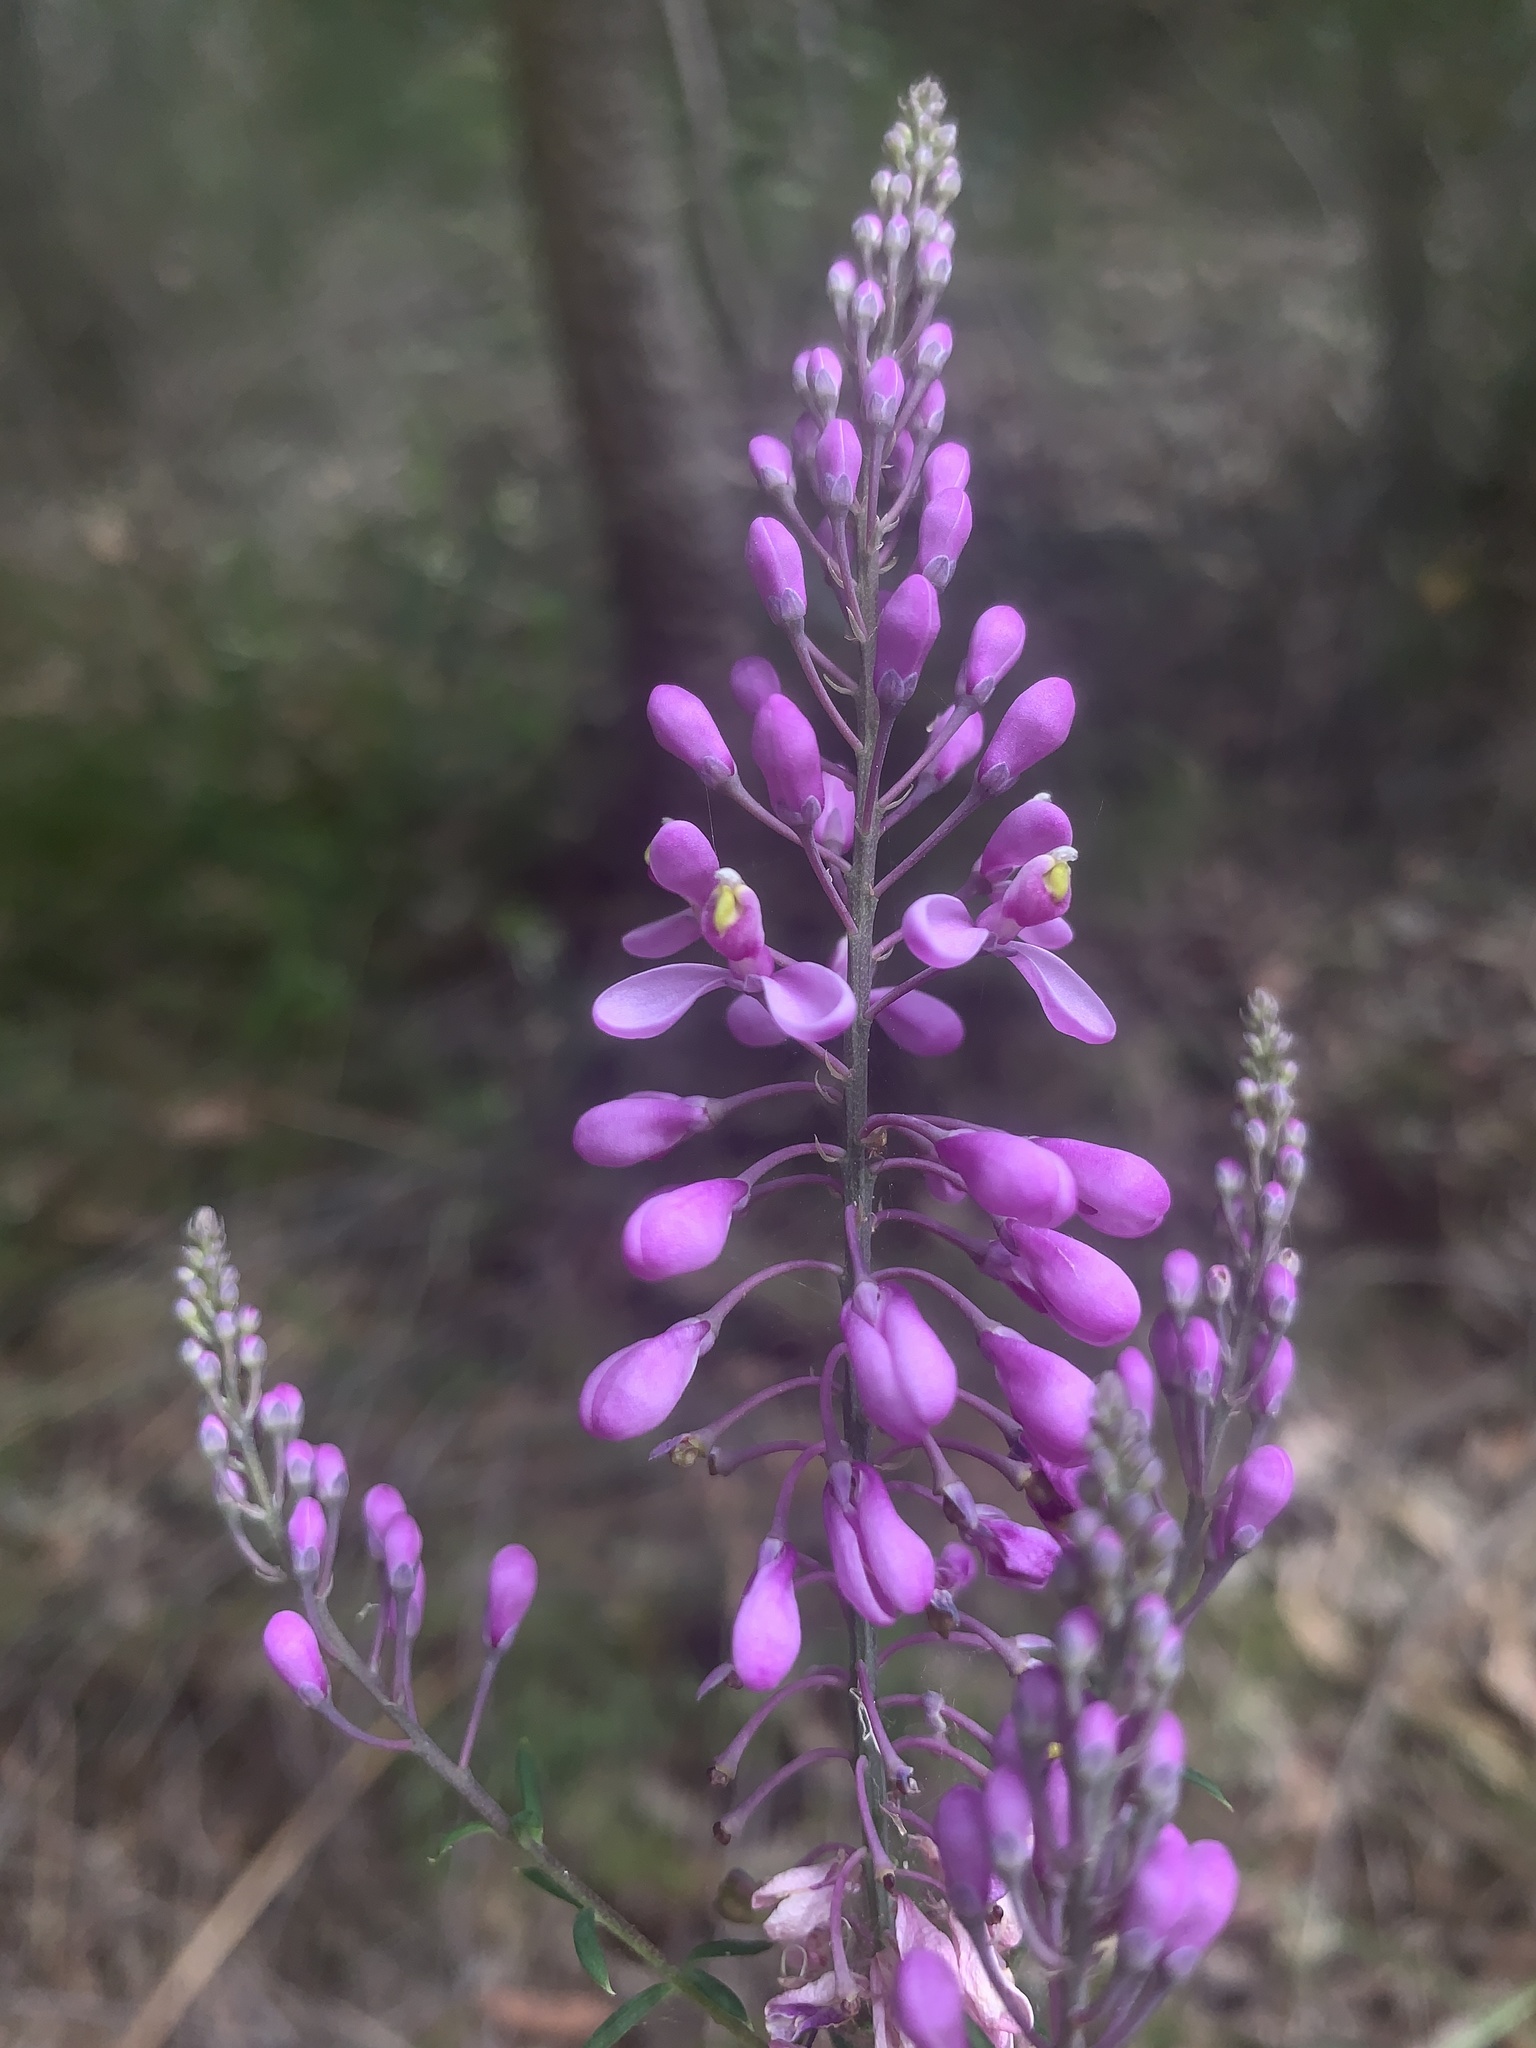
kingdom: Plantae
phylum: Tracheophyta
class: Magnoliopsida
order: Fabales
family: Polygalaceae
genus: Comesperma
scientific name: Comesperma ericinum
